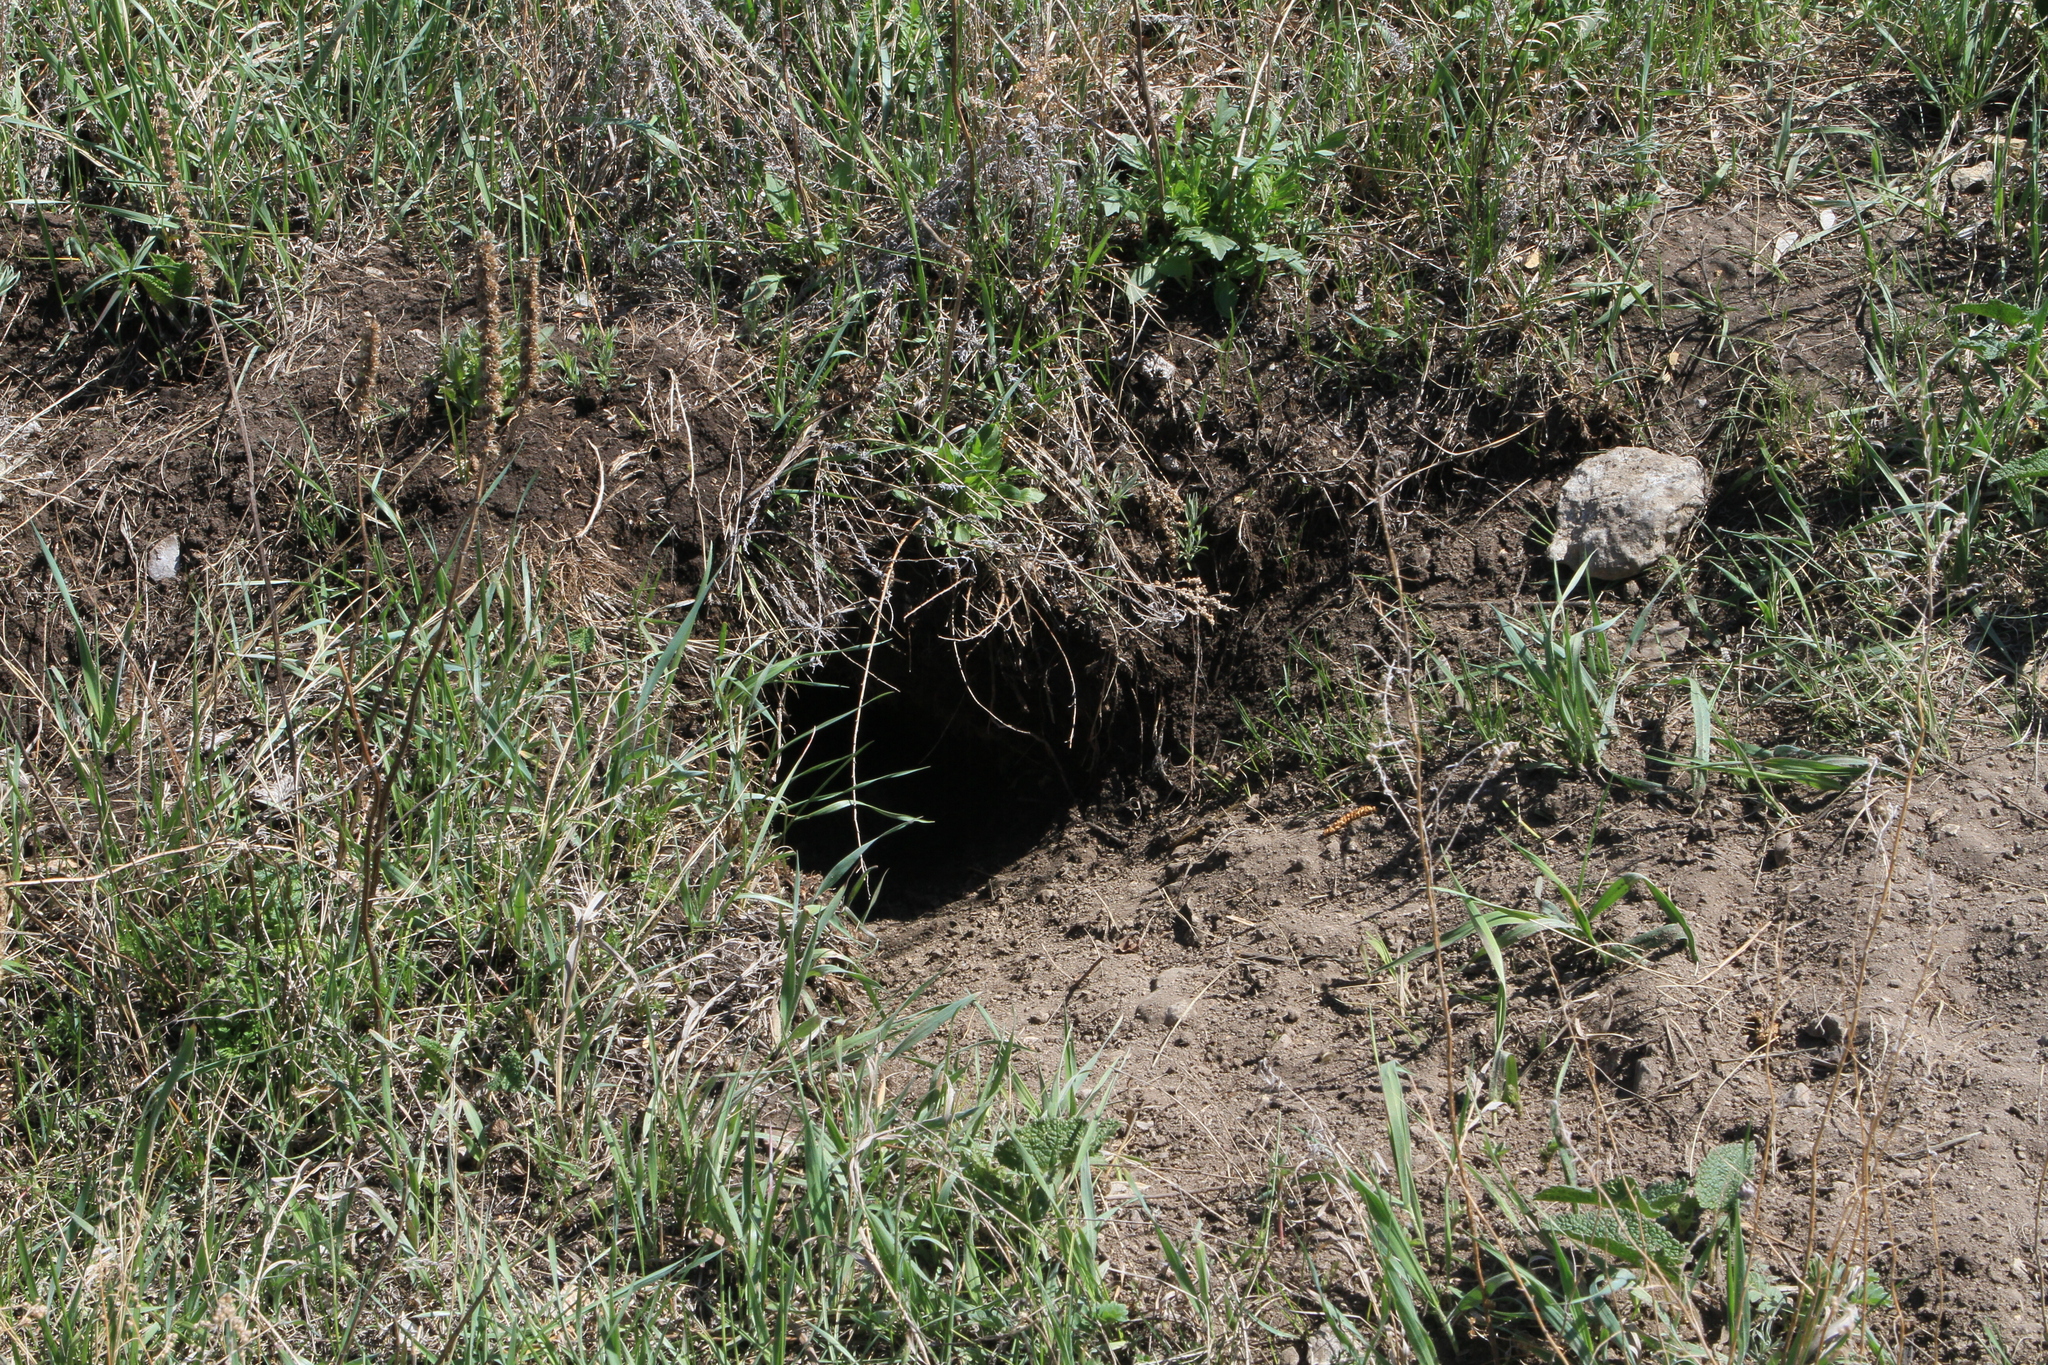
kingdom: Animalia
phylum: Chordata
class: Mammalia
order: Rodentia
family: Sciuridae
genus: Marmota
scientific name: Marmota kastschenkoi
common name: Forest steppe marmot
